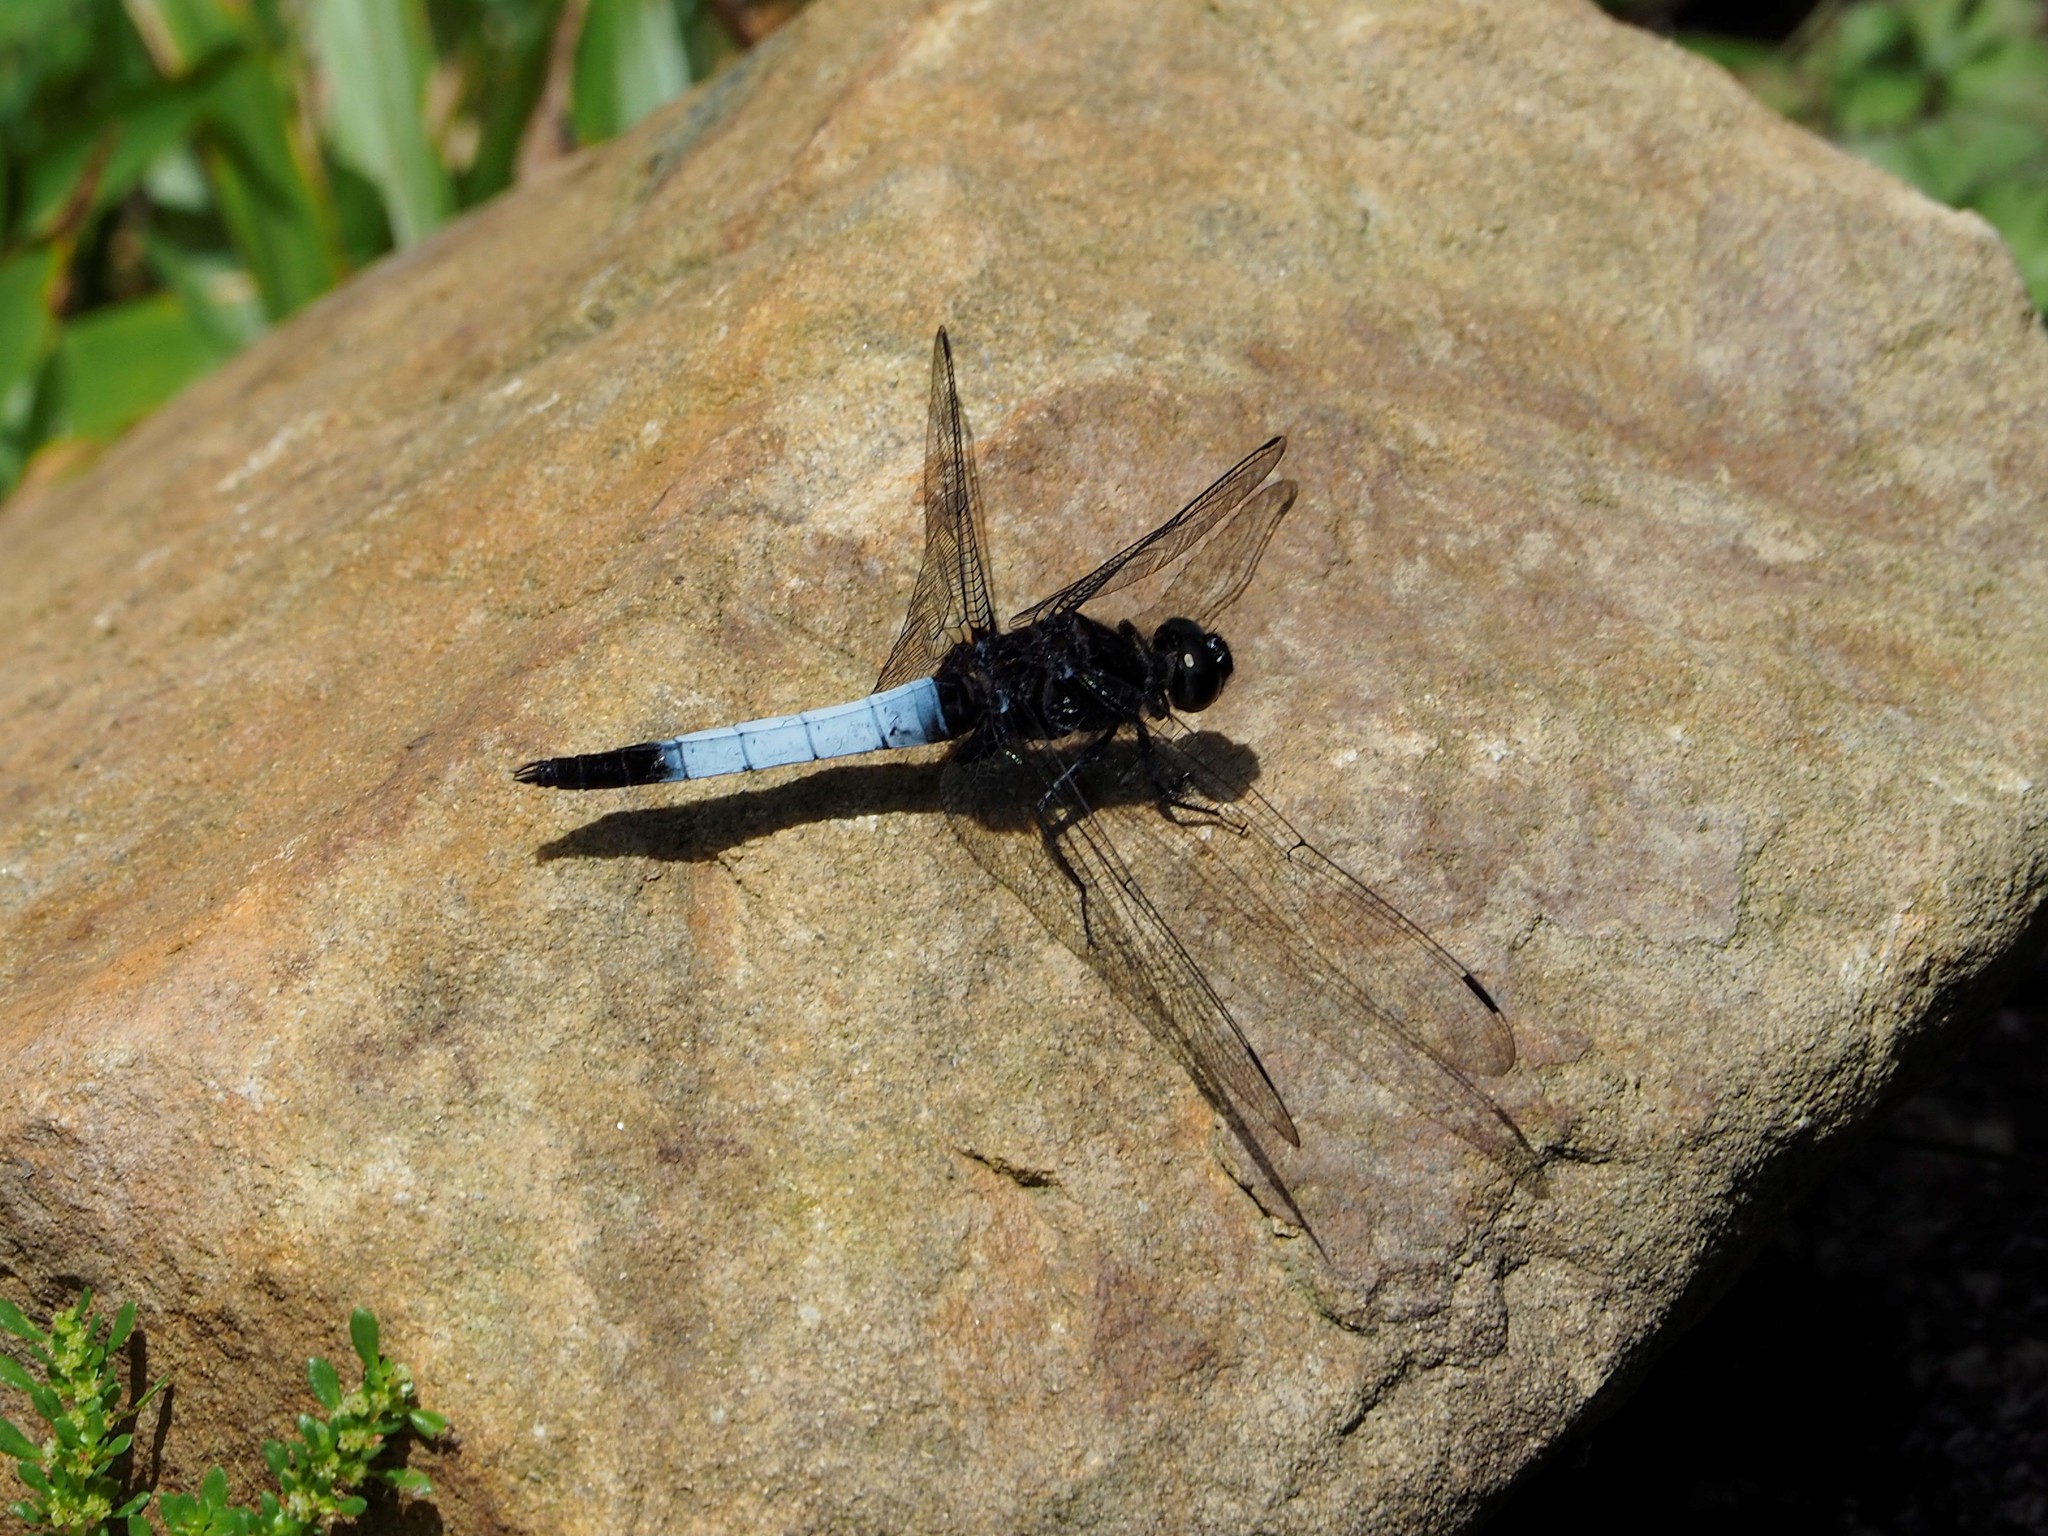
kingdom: Animalia
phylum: Arthropoda
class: Insecta
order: Odonata
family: Libellulidae
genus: Orthetrum
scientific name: Orthetrum triangulare
